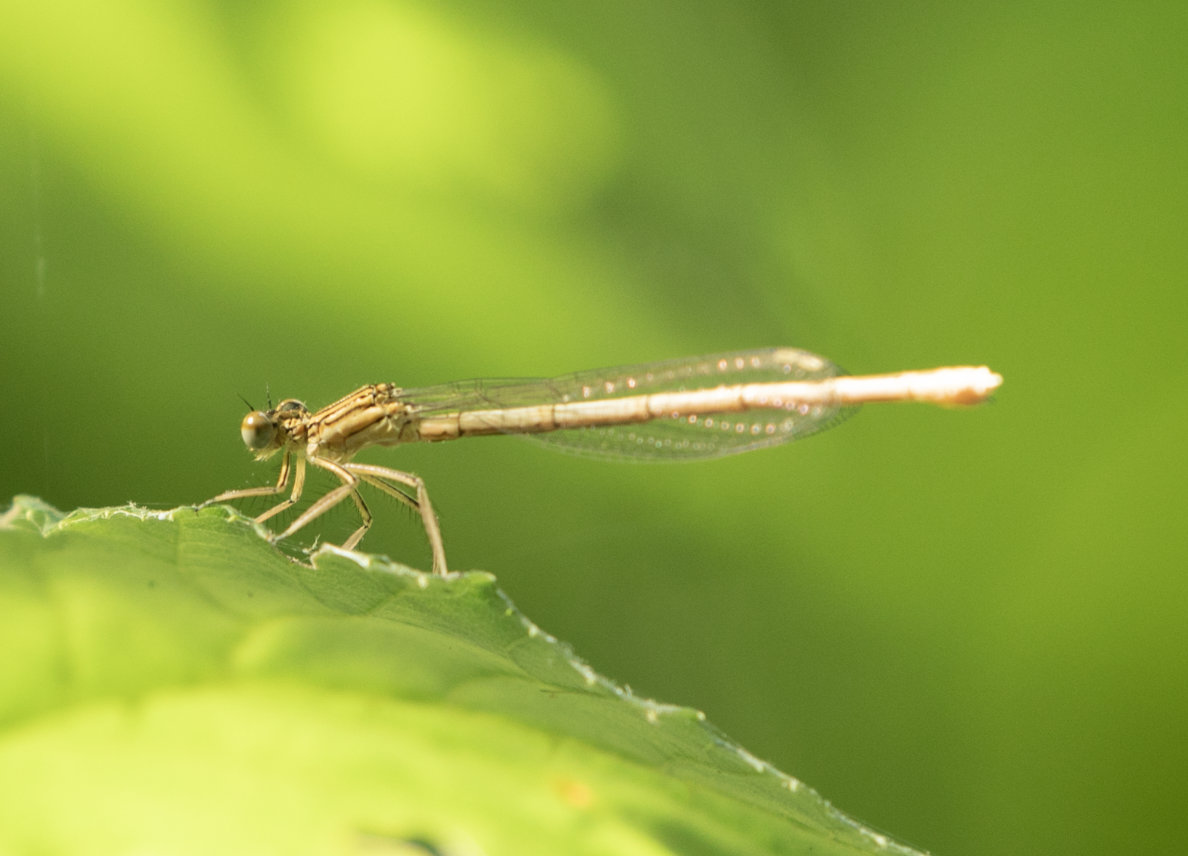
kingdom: Animalia
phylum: Arthropoda
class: Insecta
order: Odonata
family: Platycnemididae
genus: Platycnemis
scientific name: Platycnemis pennipes
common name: White-legged damselfly
